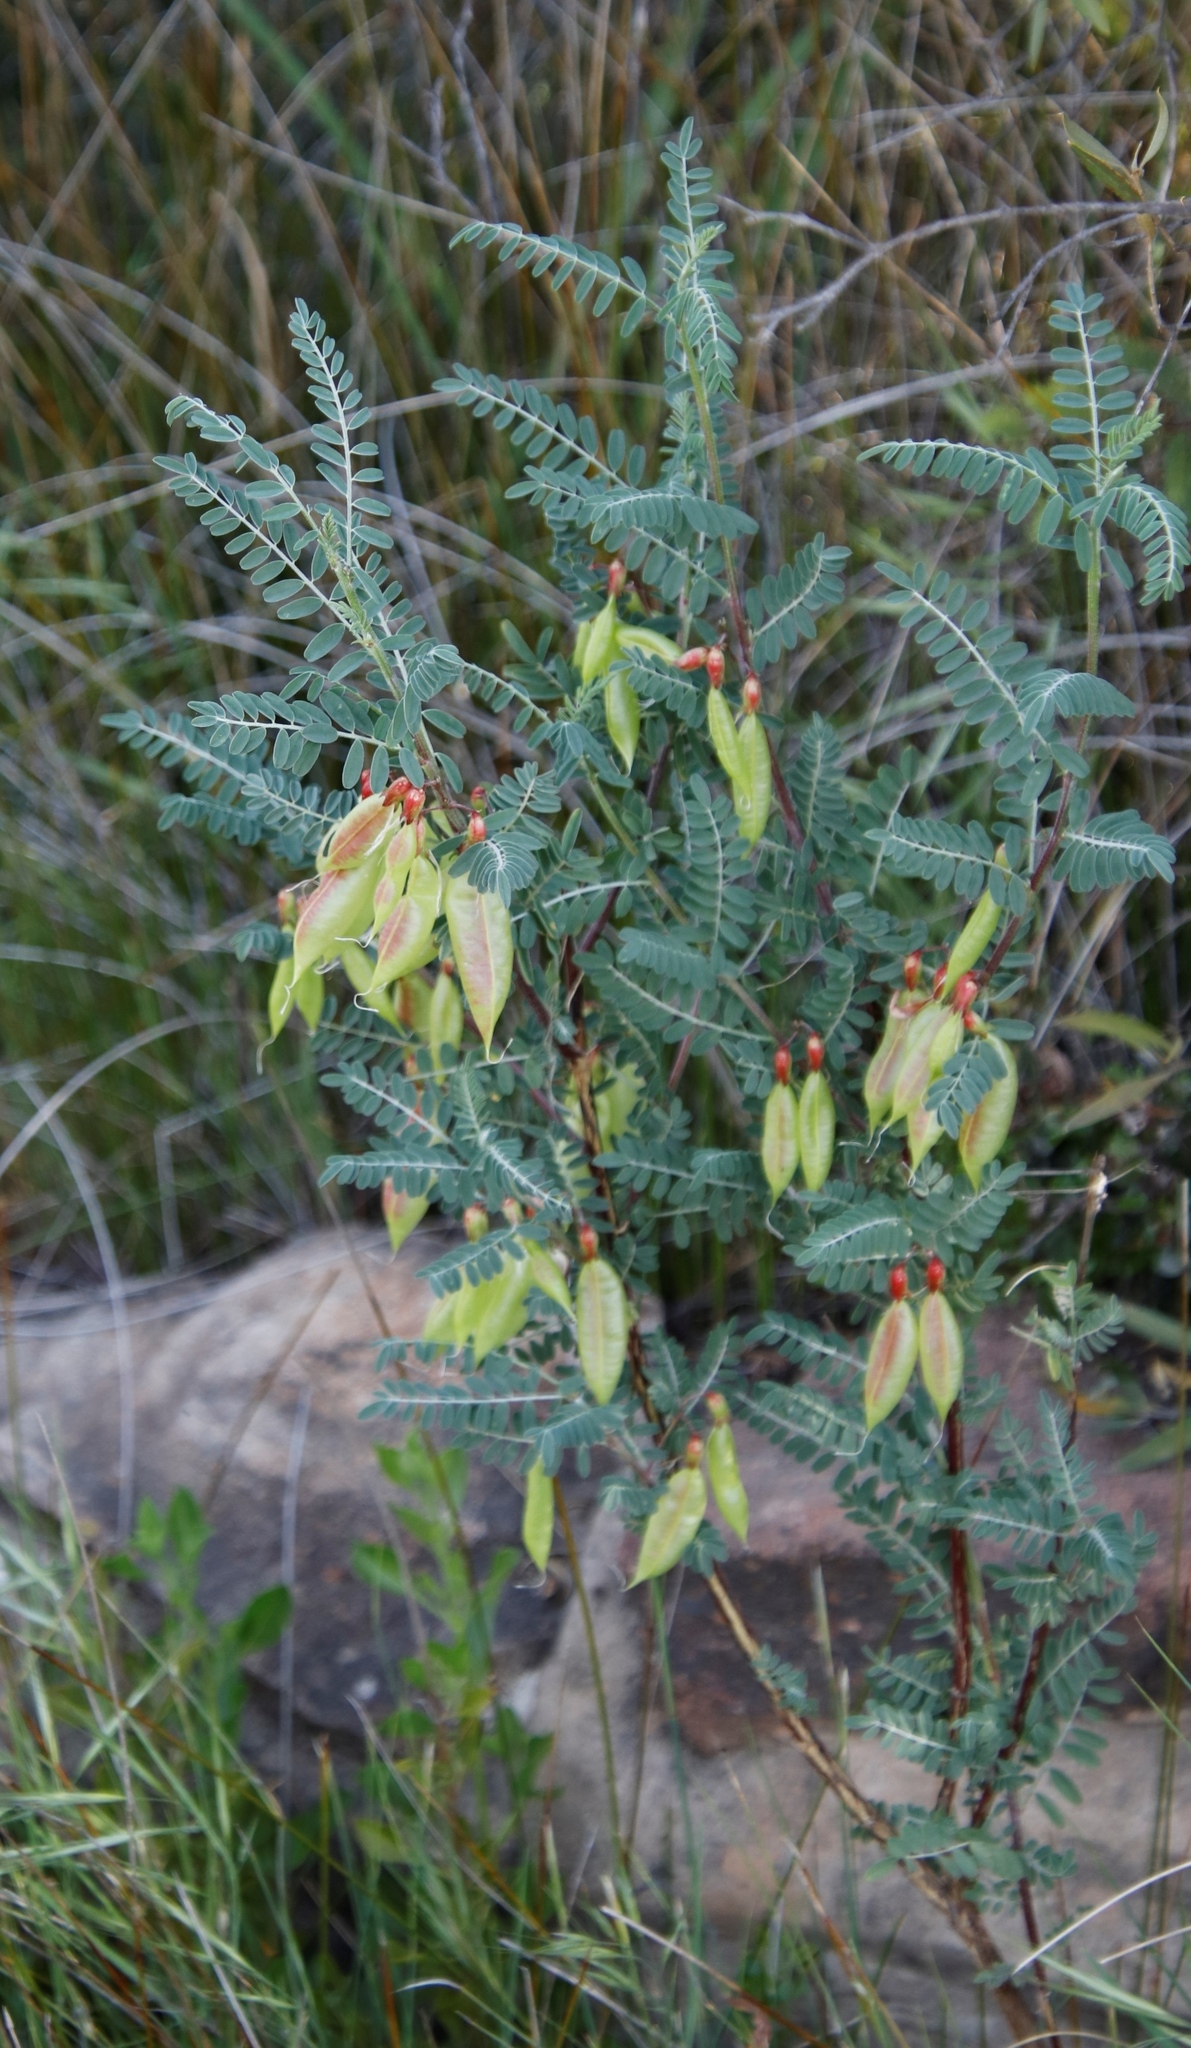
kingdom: Plantae
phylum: Tracheophyta
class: Magnoliopsida
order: Fabales
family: Fabaceae
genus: Lessertia
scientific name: Lessertia frutescens
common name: Balloon-pea
